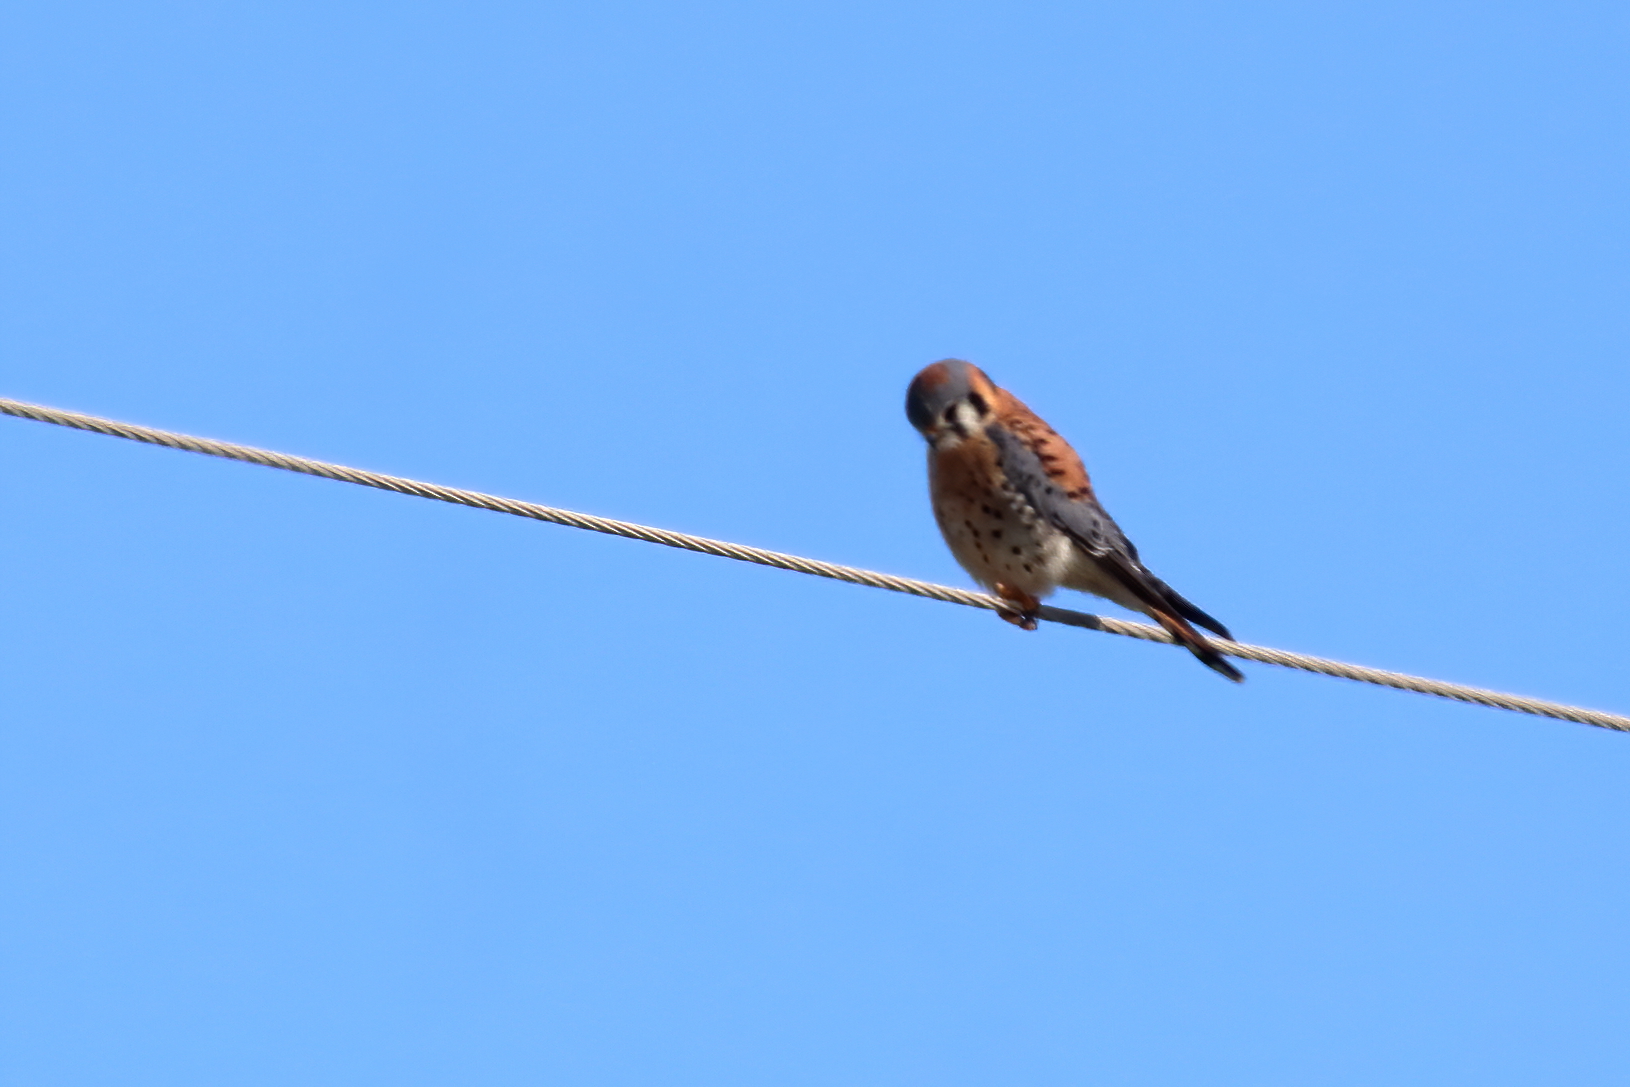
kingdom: Animalia
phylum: Chordata
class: Aves
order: Falconiformes
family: Falconidae
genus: Falco
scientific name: Falco sparverius
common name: American kestrel
